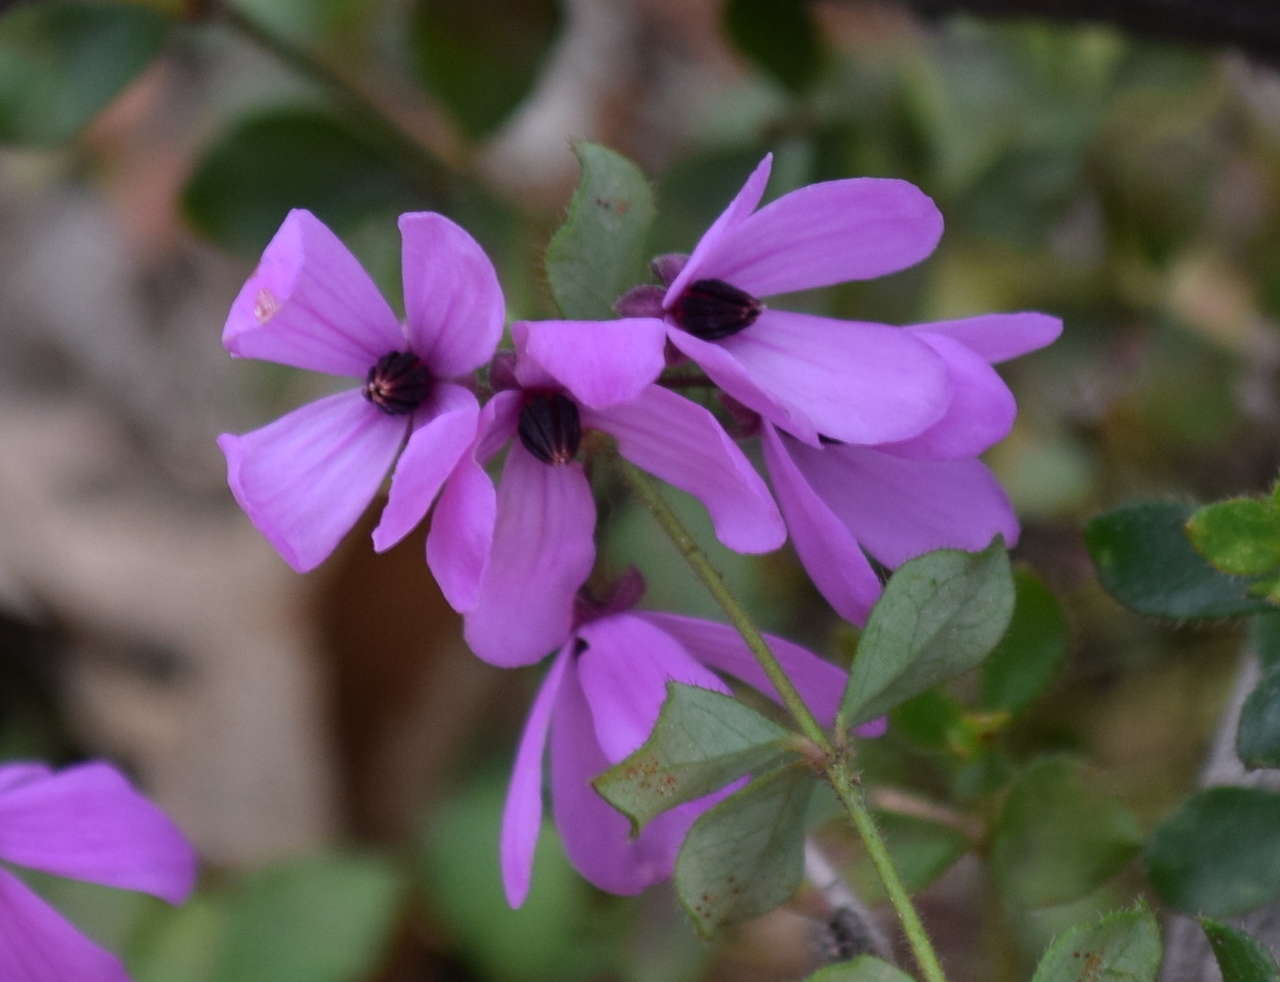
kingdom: Plantae
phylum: Tracheophyta
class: Magnoliopsida
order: Oxalidales
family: Elaeocarpaceae
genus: Tetratheca
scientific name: Tetratheca ciliata
